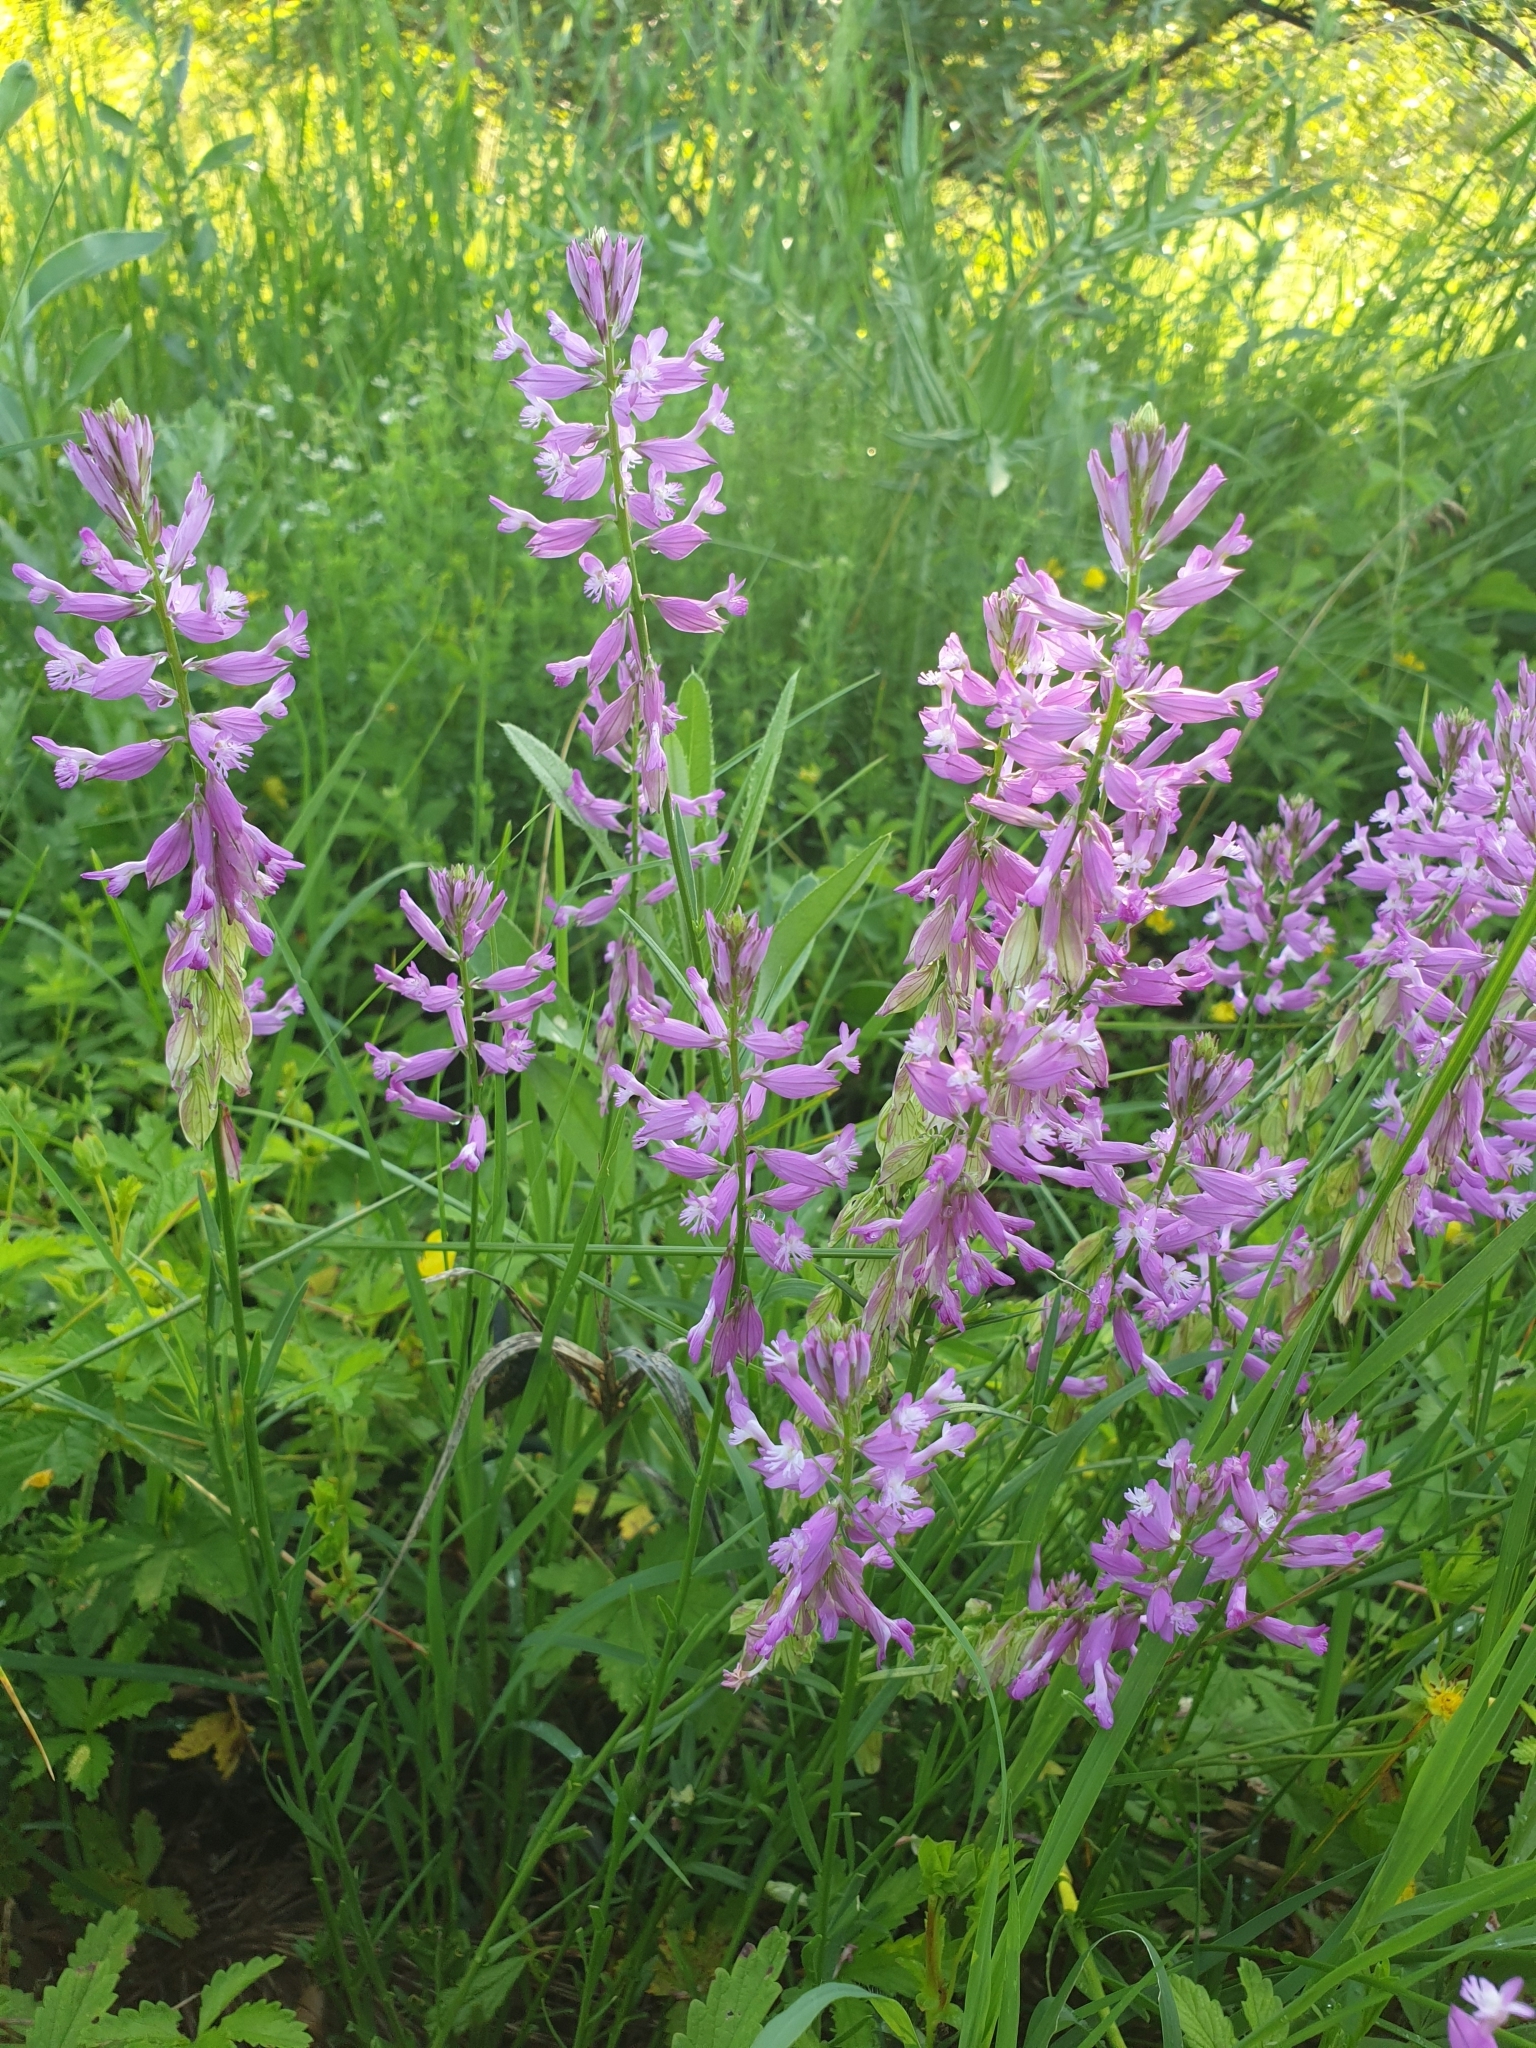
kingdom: Plantae
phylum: Tracheophyta
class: Magnoliopsida
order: Fabales
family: Polygalaceae
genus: Polygala
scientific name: Polygala major
